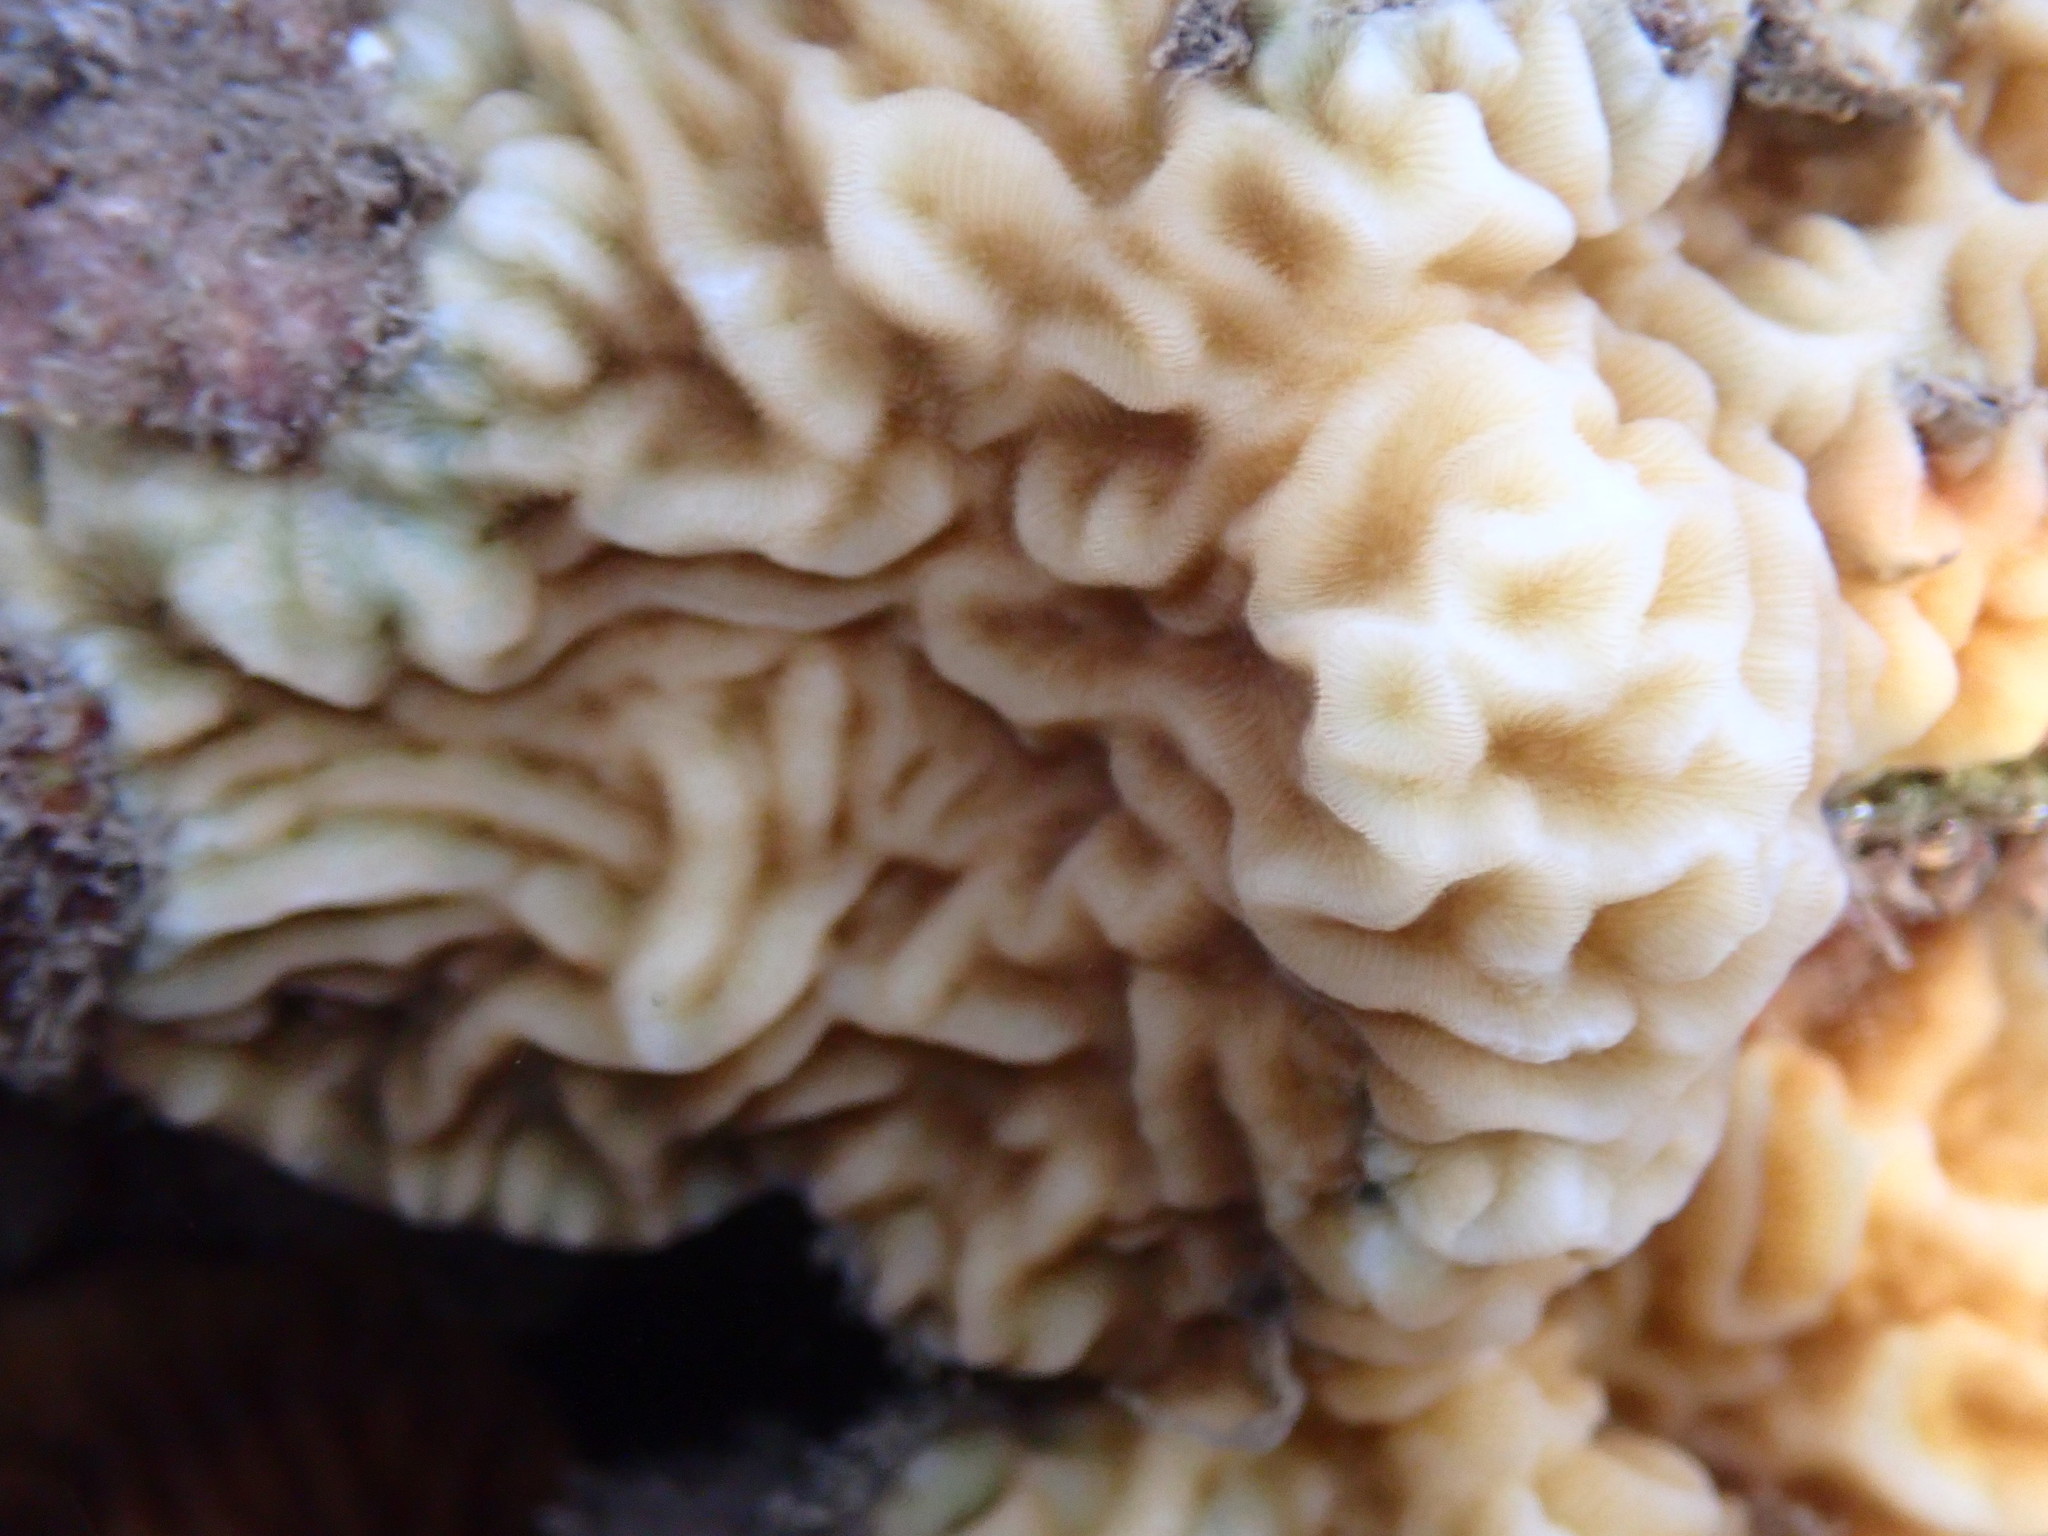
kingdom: Animalia
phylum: Cnidaria
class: Anthozoa
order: Scleractinia
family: Agariciidae
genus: Pavona
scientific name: Pavona varians
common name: Leaf coral
